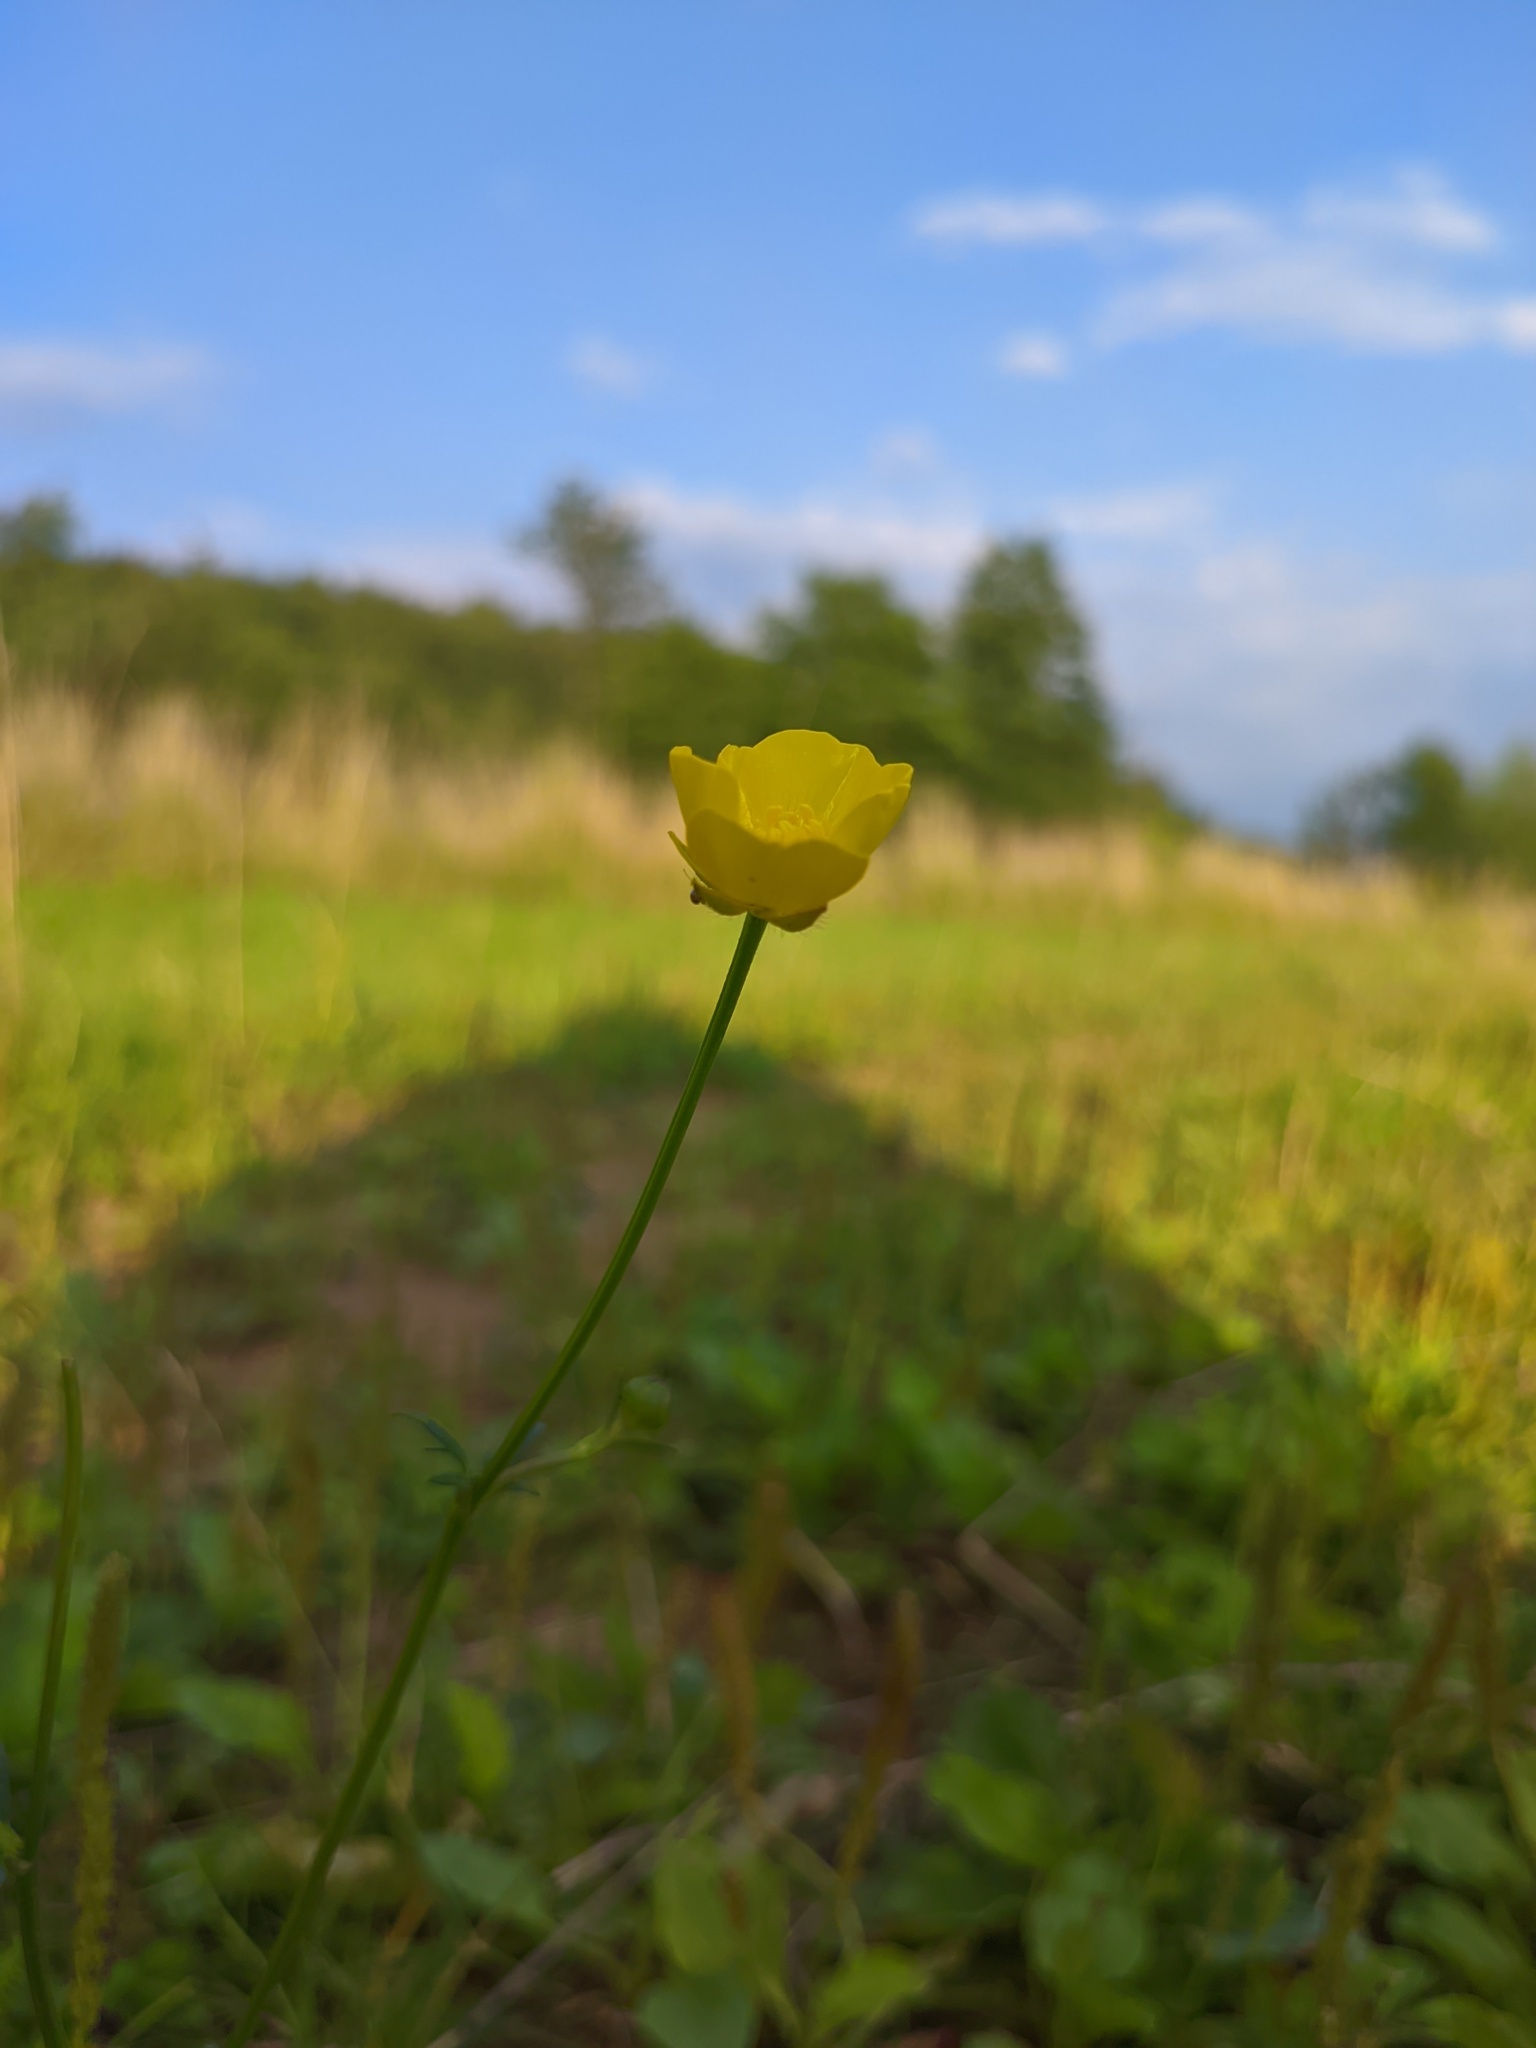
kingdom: Plantae
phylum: Tracheophyta
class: Magnoliopsida
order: Ranunculales
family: Ranunculaceae
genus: Ranunculus
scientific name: Ranunculus polyanthemos
